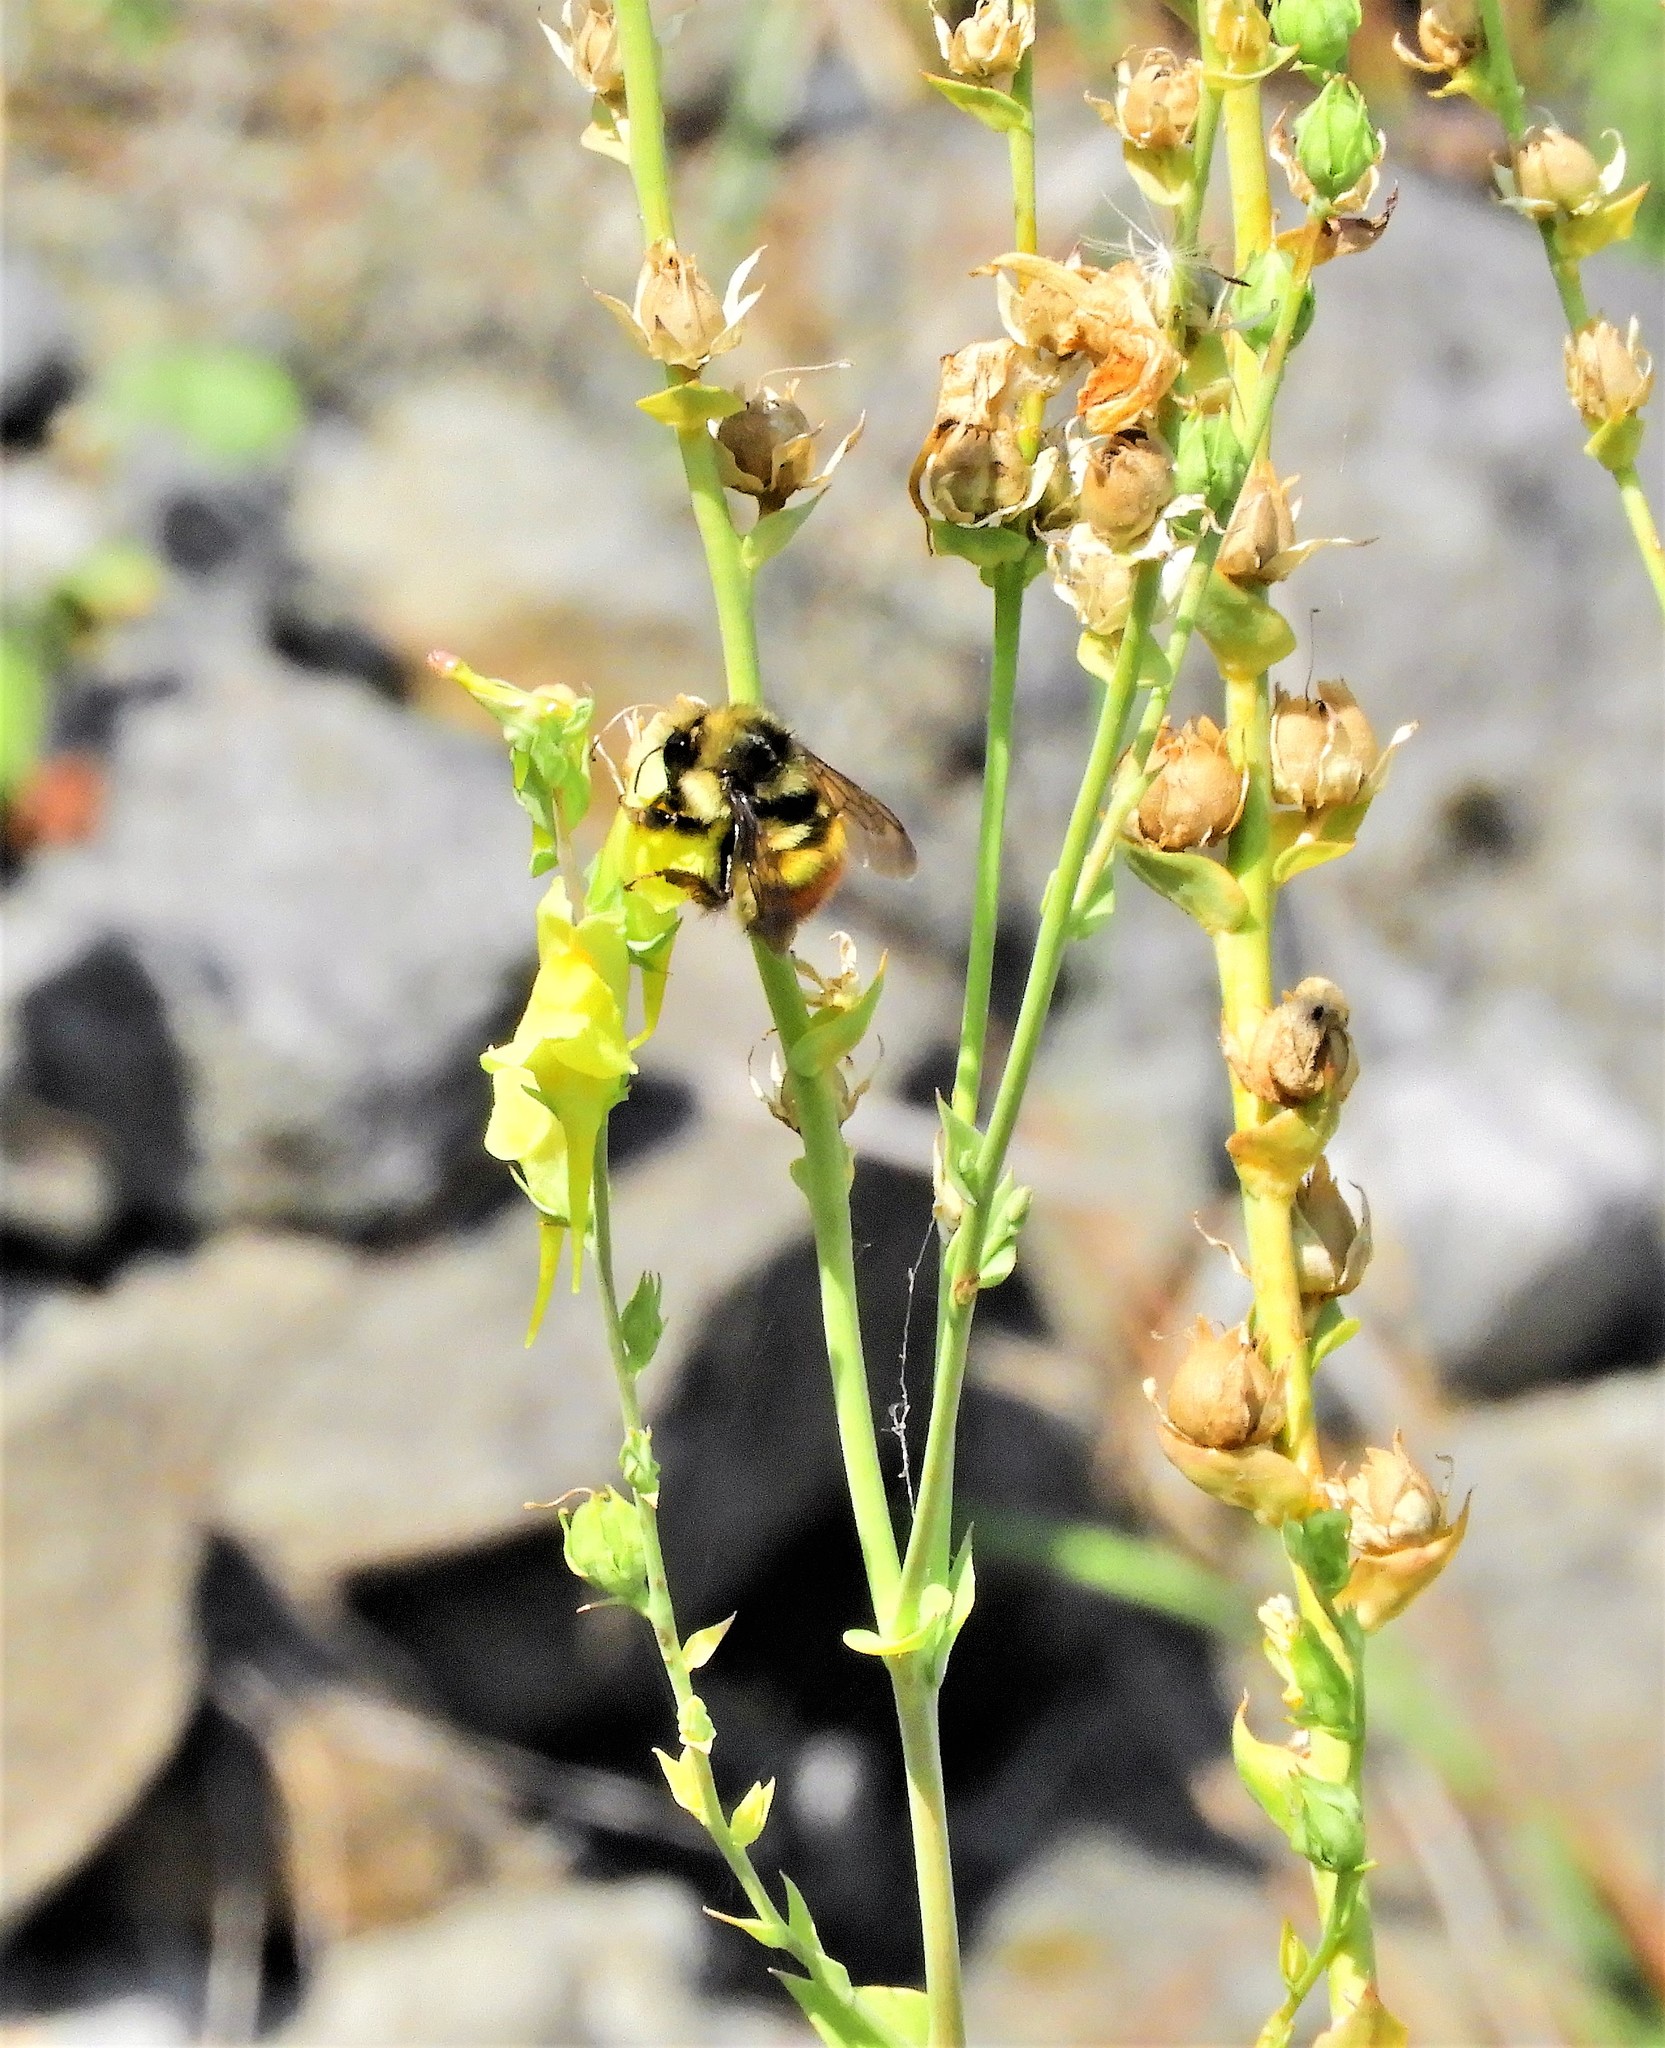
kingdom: Animalia
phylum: Arthropoda
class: Insecta
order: Hymenoptera
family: Apidae
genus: Bombus
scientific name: Bombus flavifrons
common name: Yellow head bumble bee
